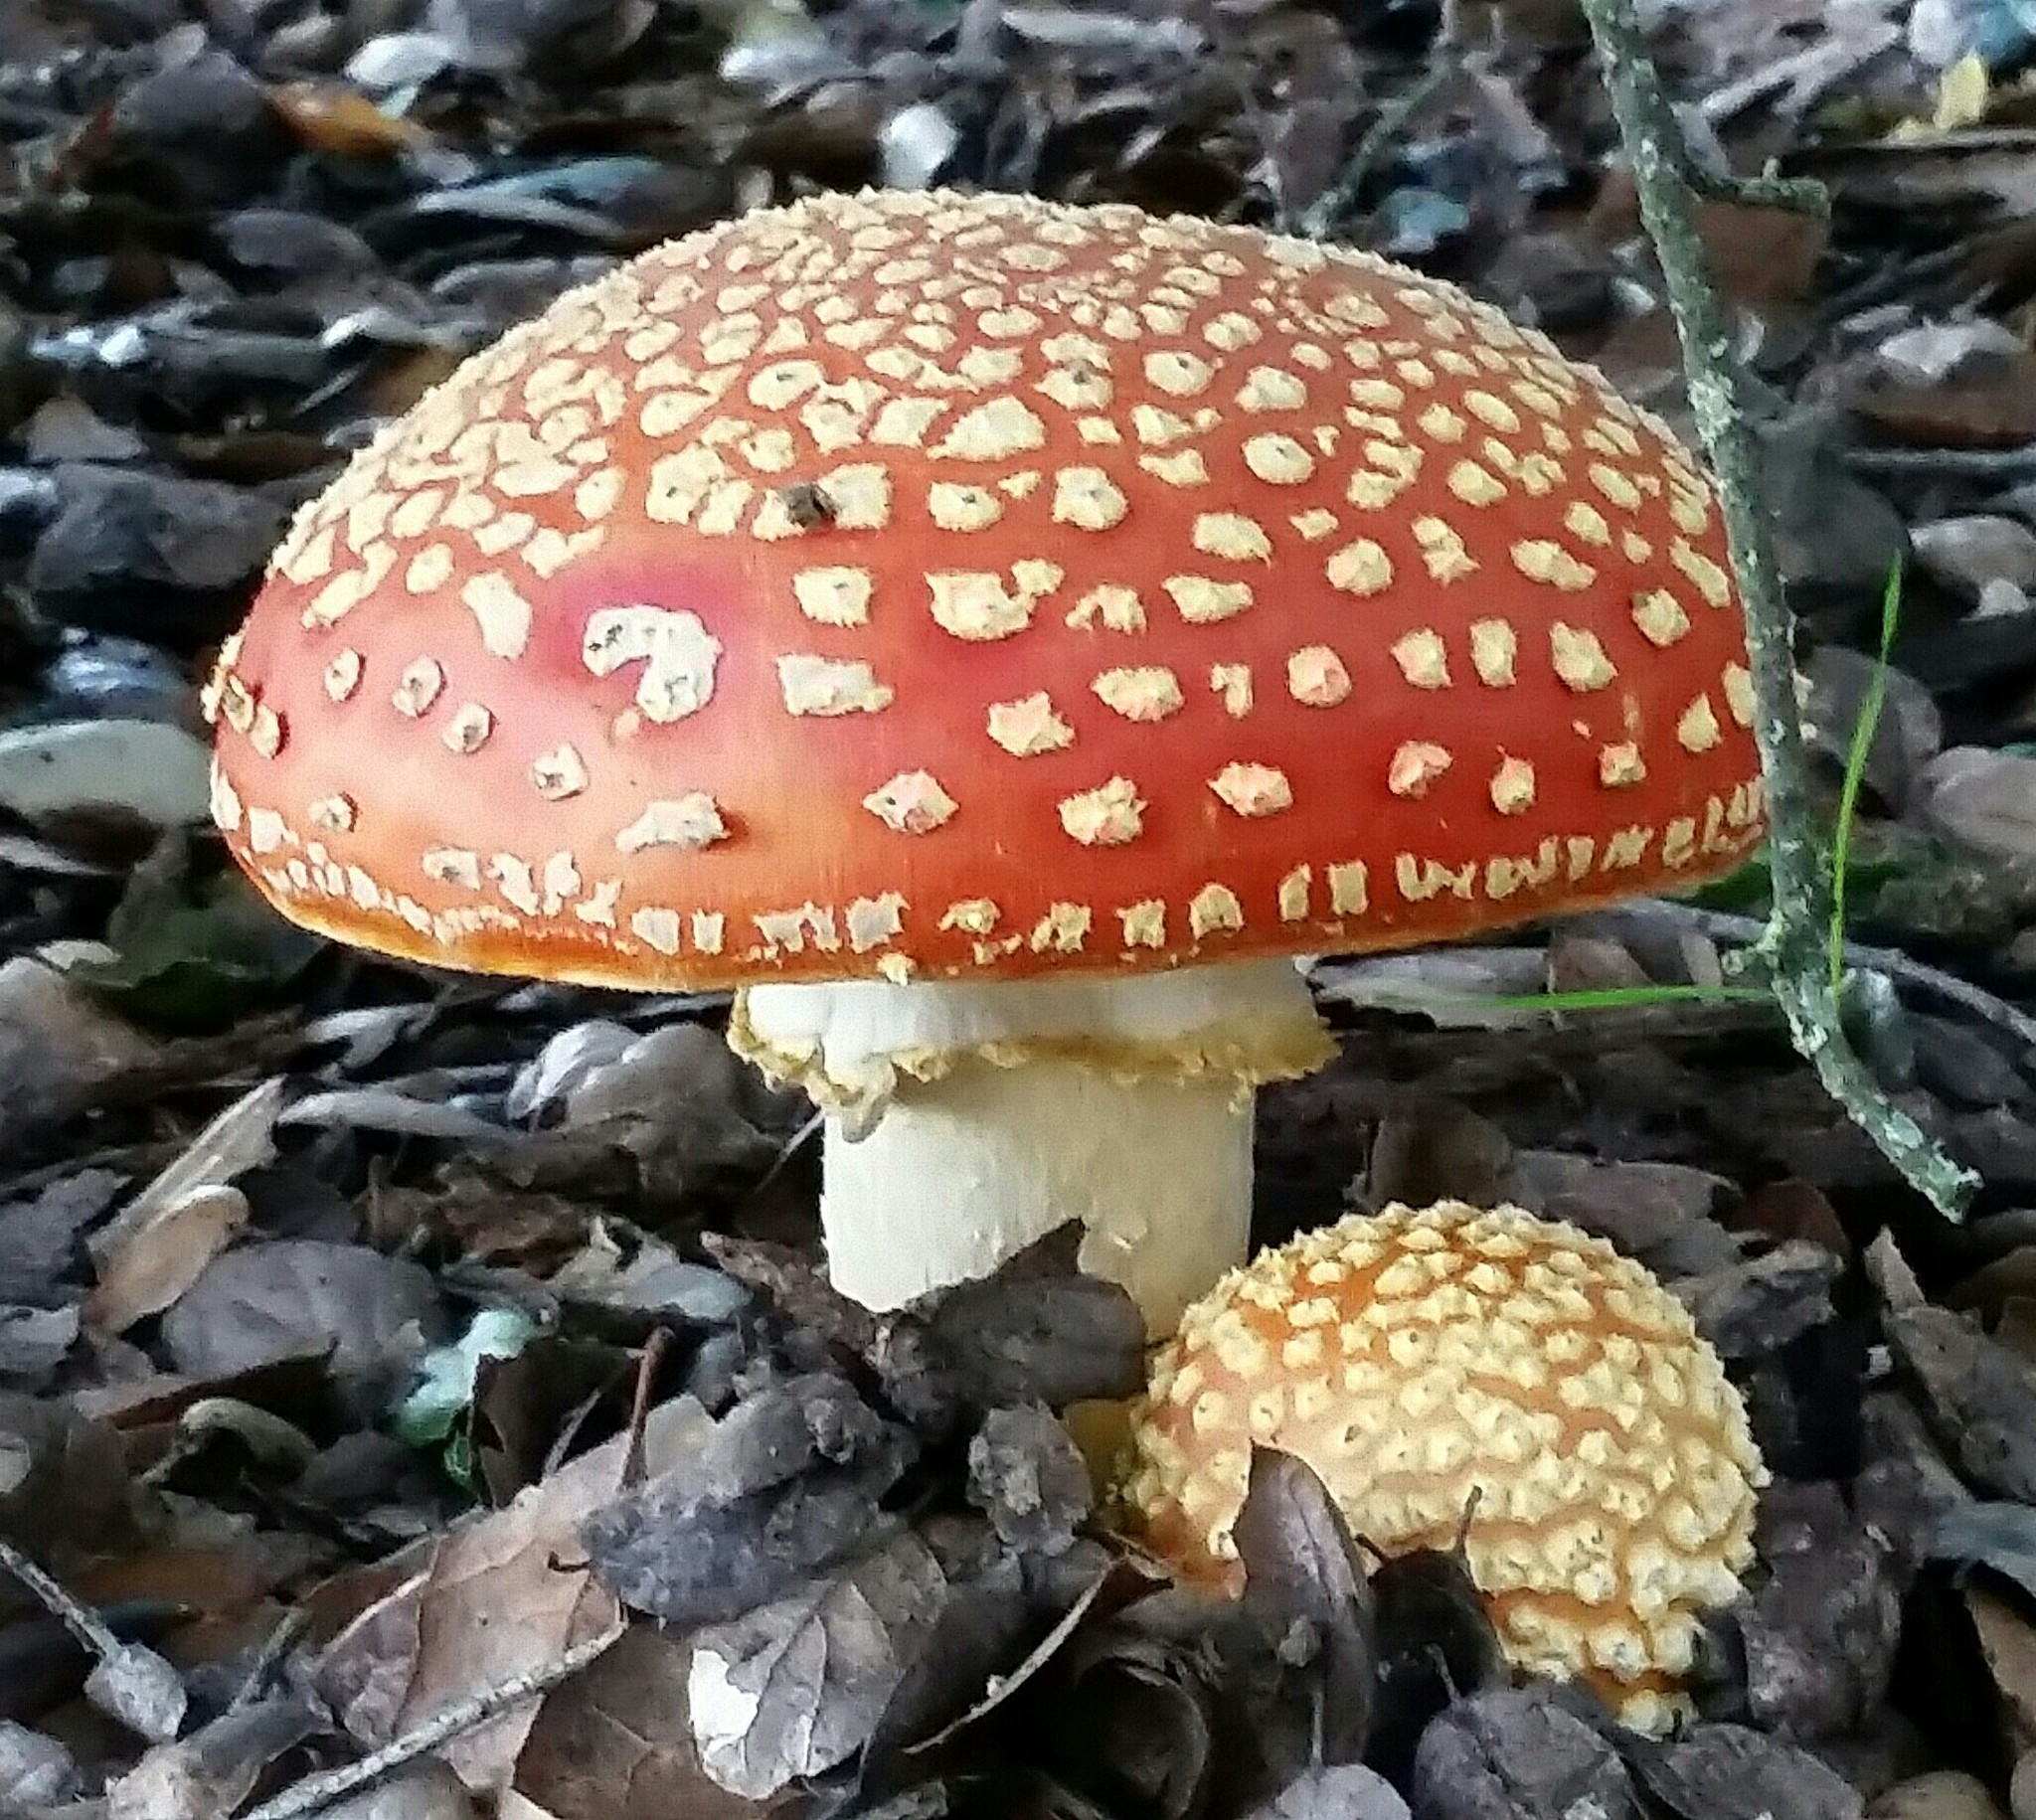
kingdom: Fungi
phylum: Basidiomycota
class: Agaricomycetes
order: Agaricales
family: Amanitaceae
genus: Amanita
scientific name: Amanita muscaria
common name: Fly agaric
